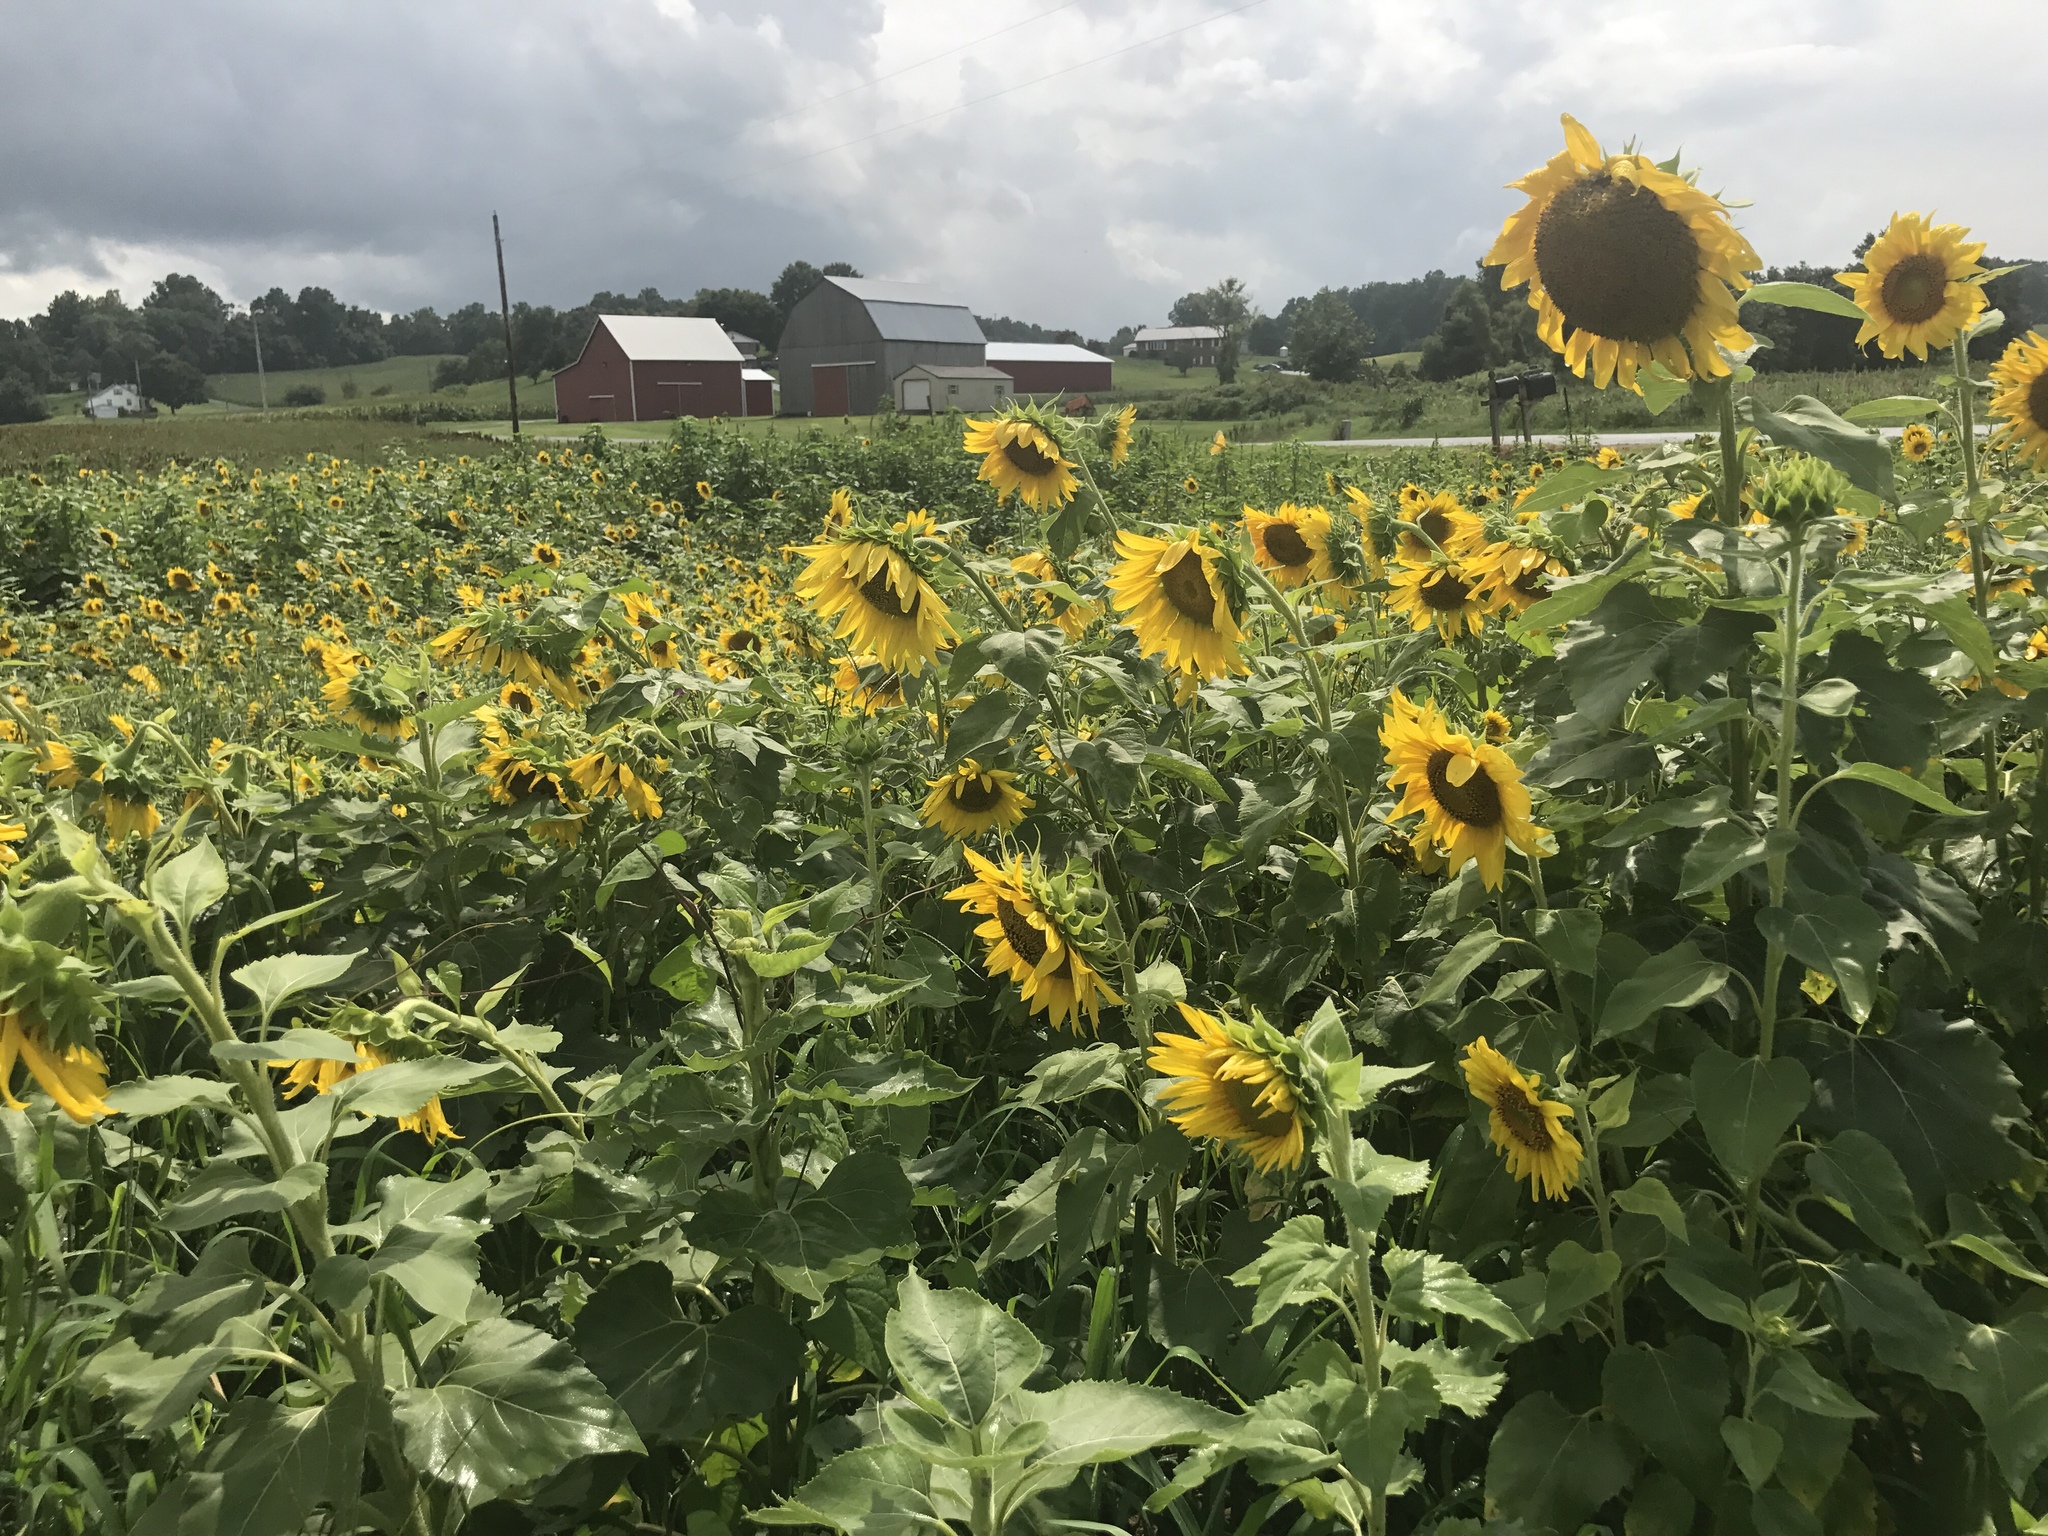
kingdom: Plantae
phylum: Tracheophyta
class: Magnoliopsida
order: Asterales
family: Asteraceae
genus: Helianthus
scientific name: Helianthus annuus
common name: Sunflower
